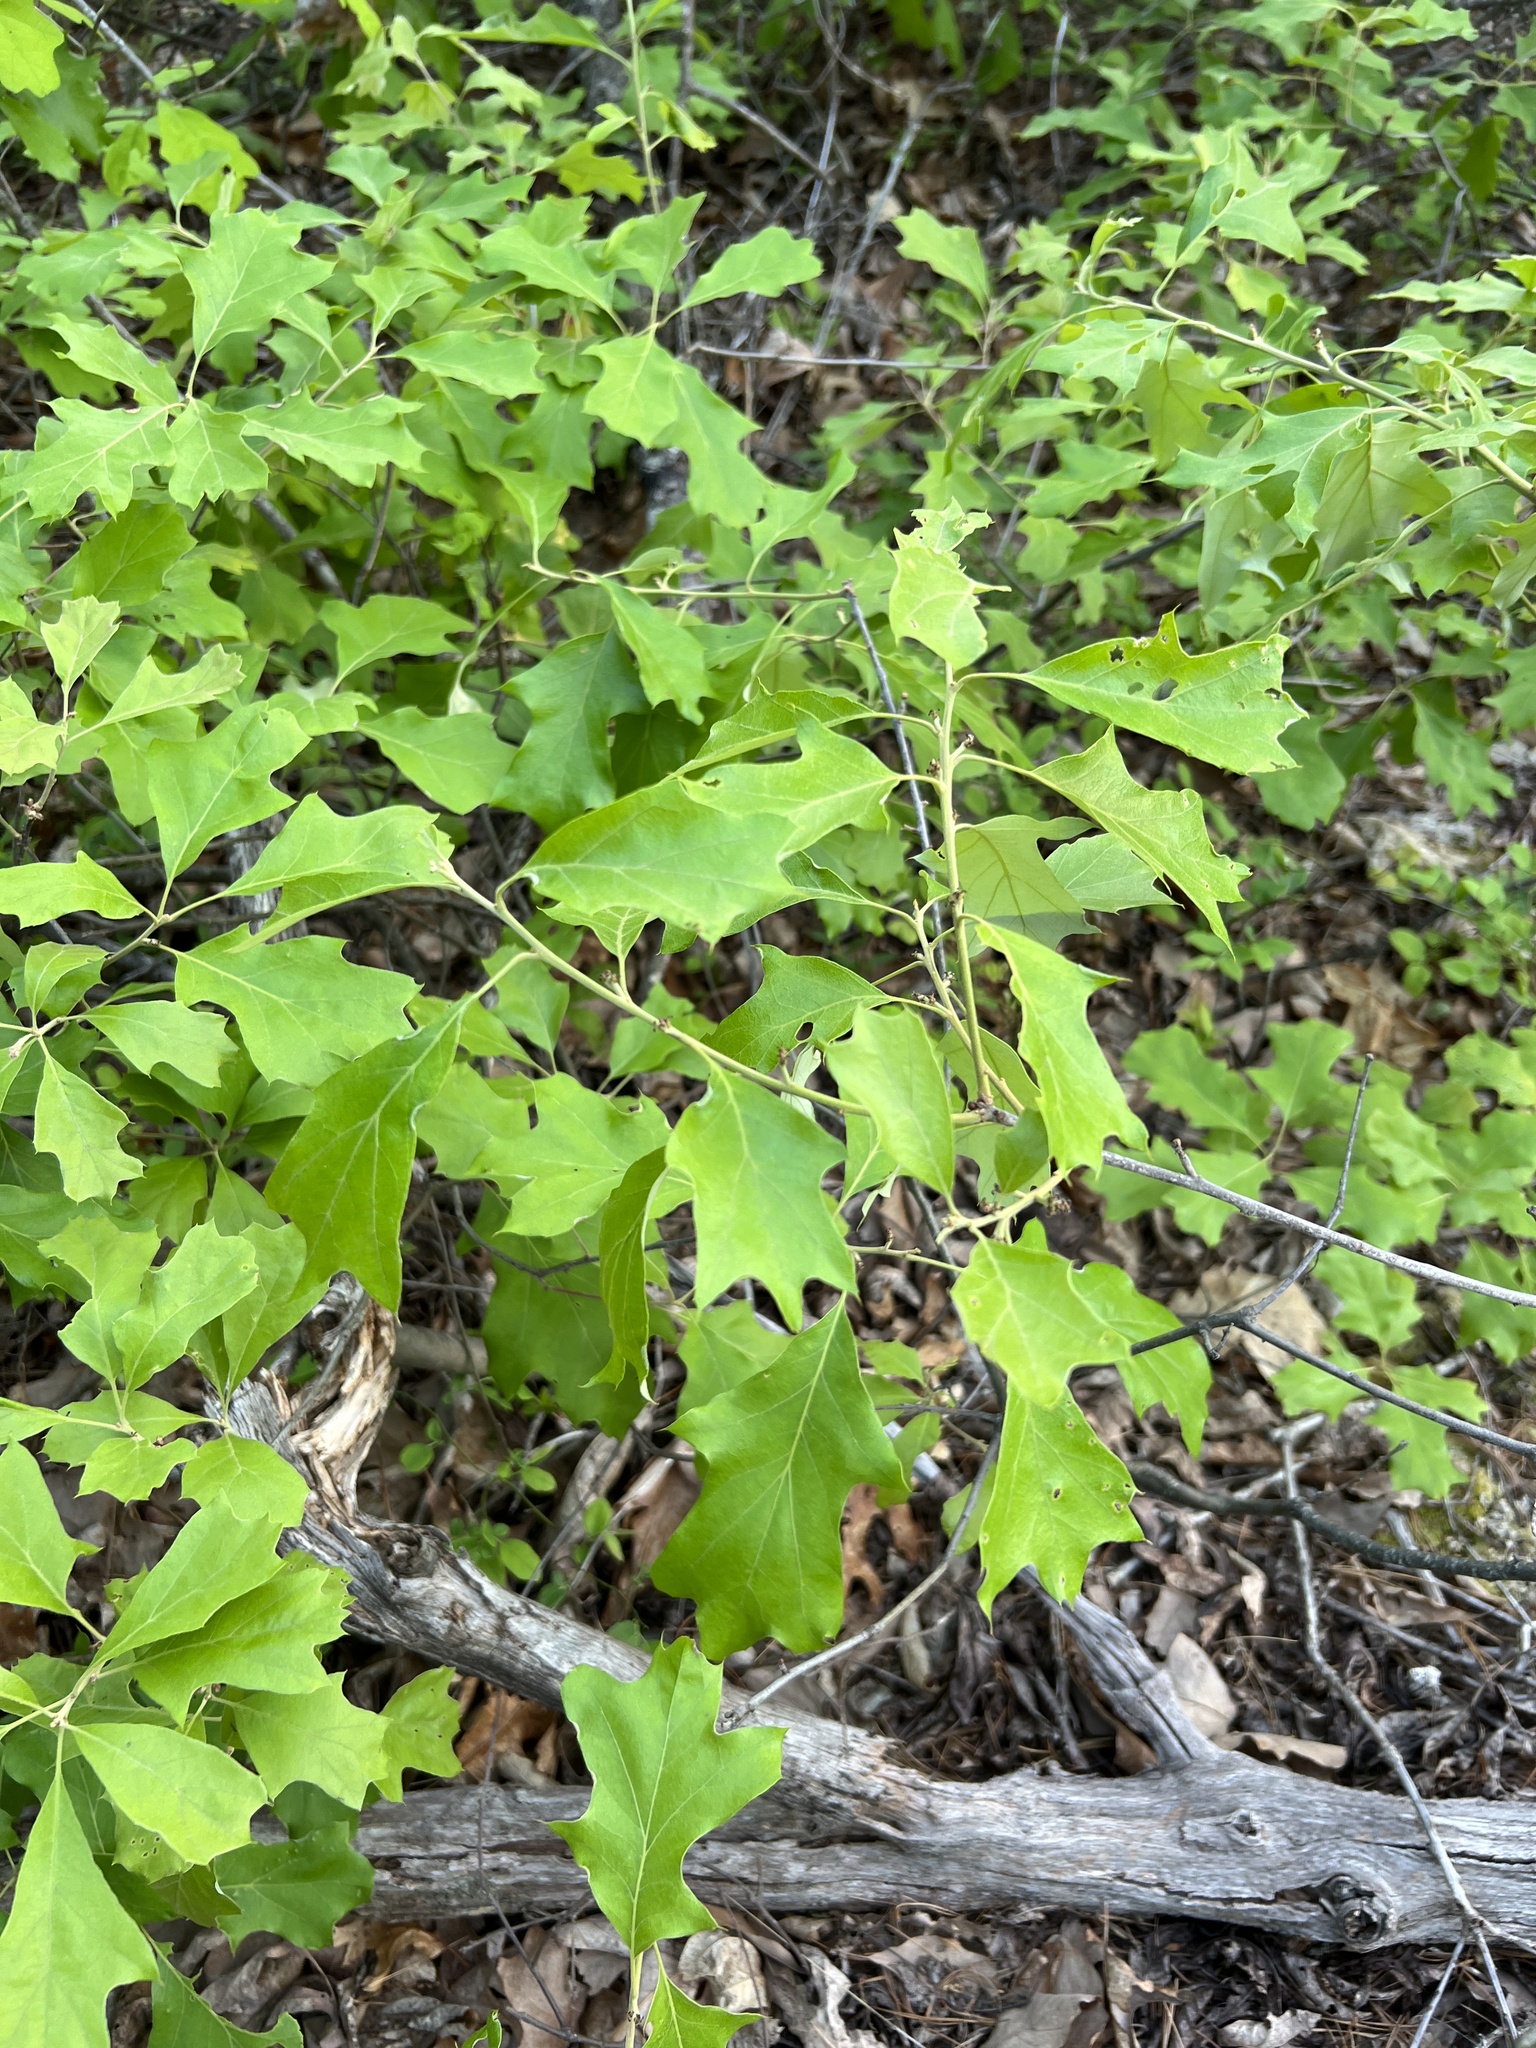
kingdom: Plantae
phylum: Tracheophyta
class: Magnoliopsida
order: Fagales
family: Fagaceae
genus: Quercus
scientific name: Quercus ilicifolia
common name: Bear oak
